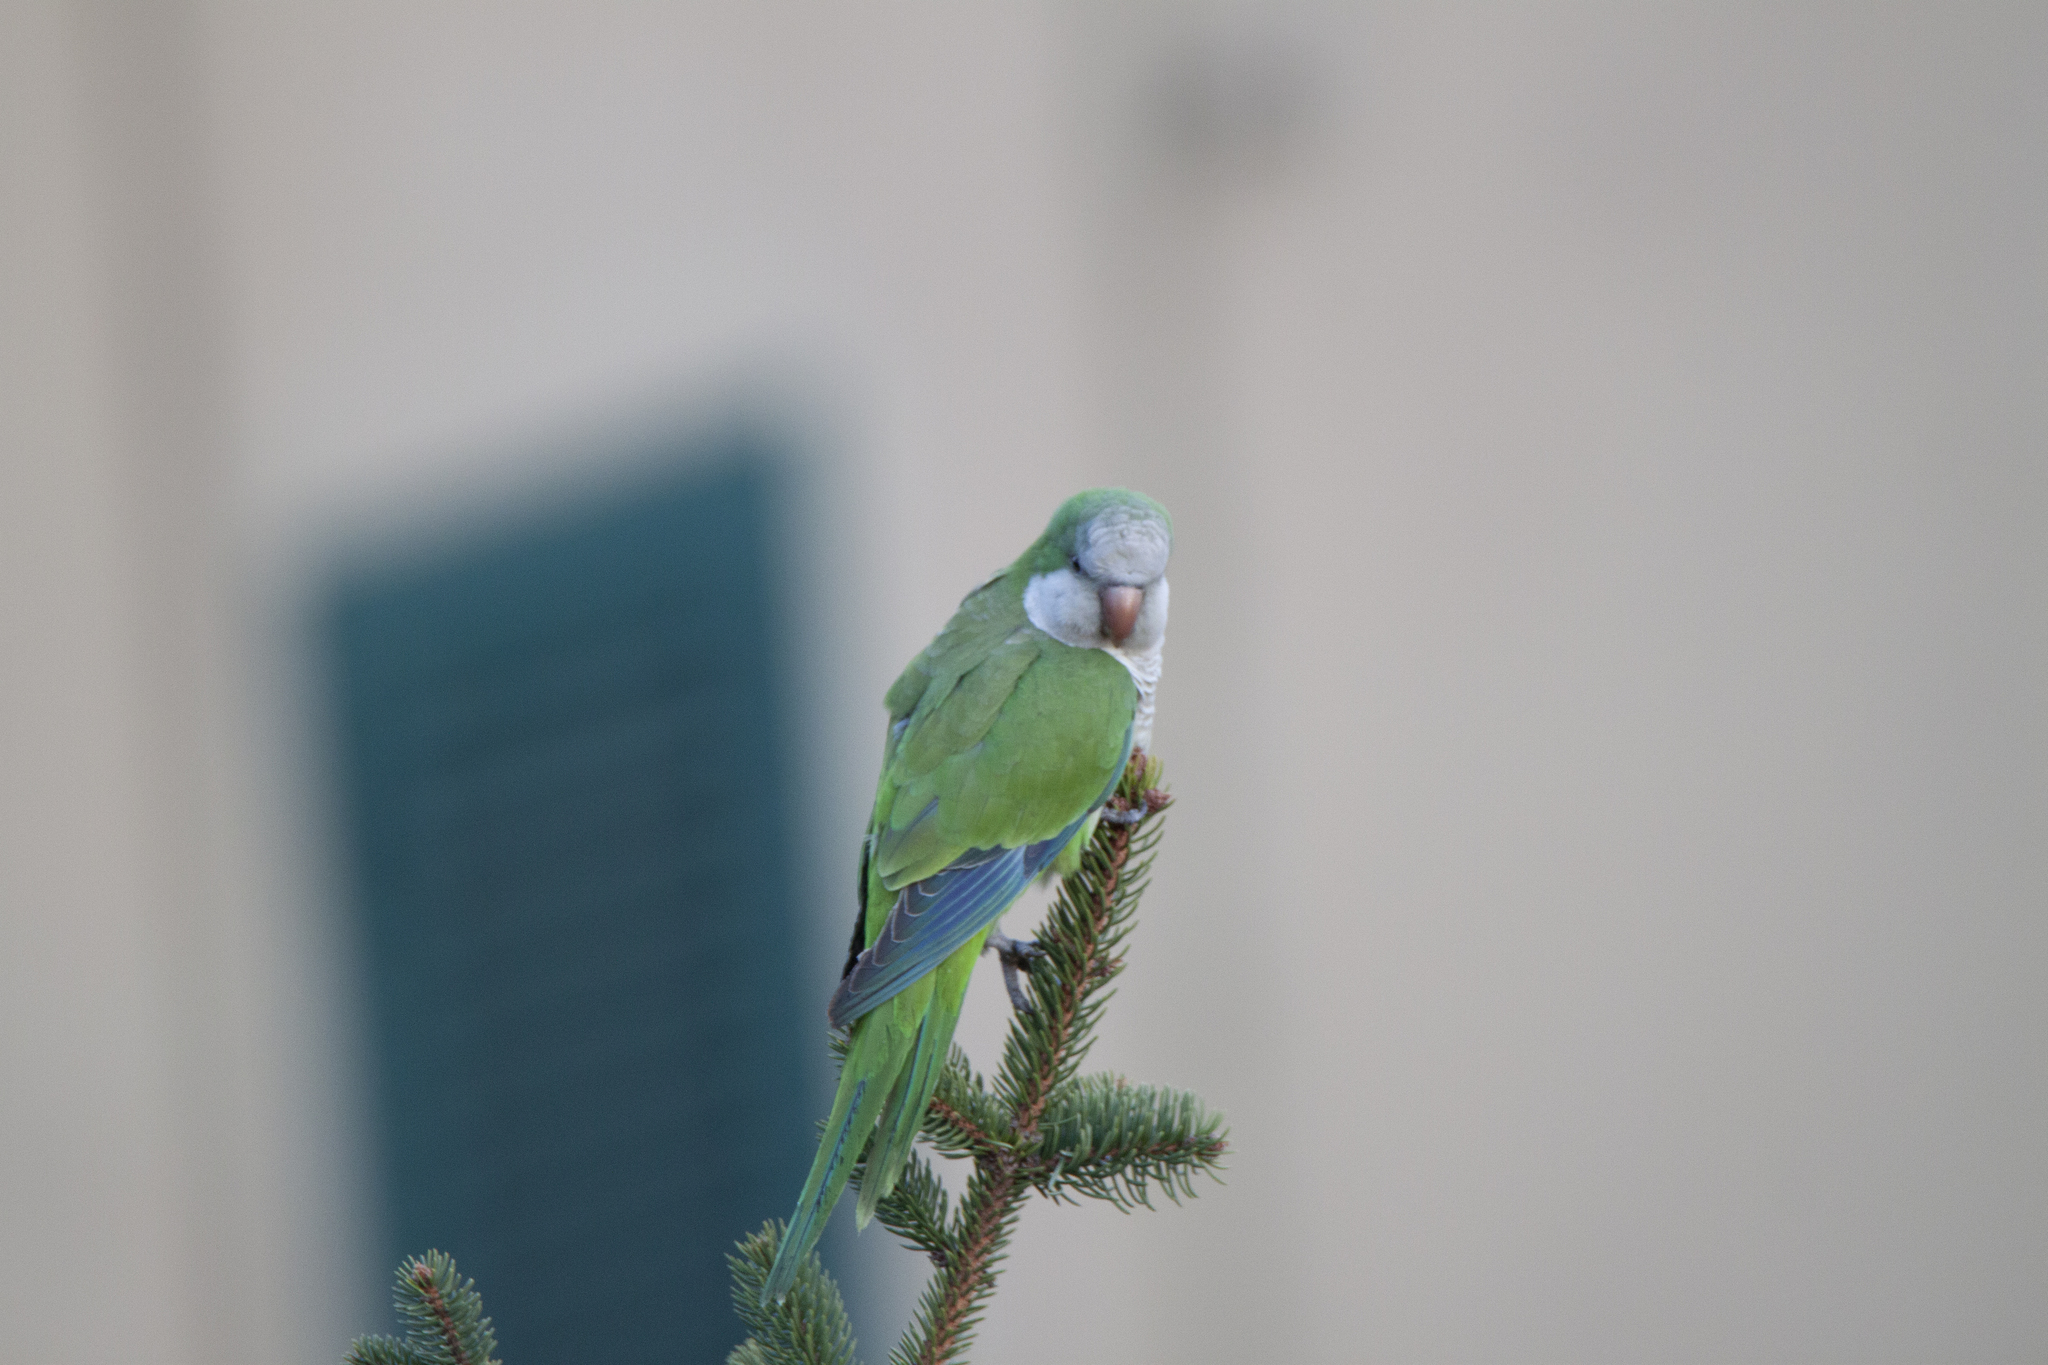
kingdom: Animalia
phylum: Chordata
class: Aves
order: Psittaciformes
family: Psittacidae
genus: Myiopsitta
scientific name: Myiopsitta monachus
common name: Monk parakeet
